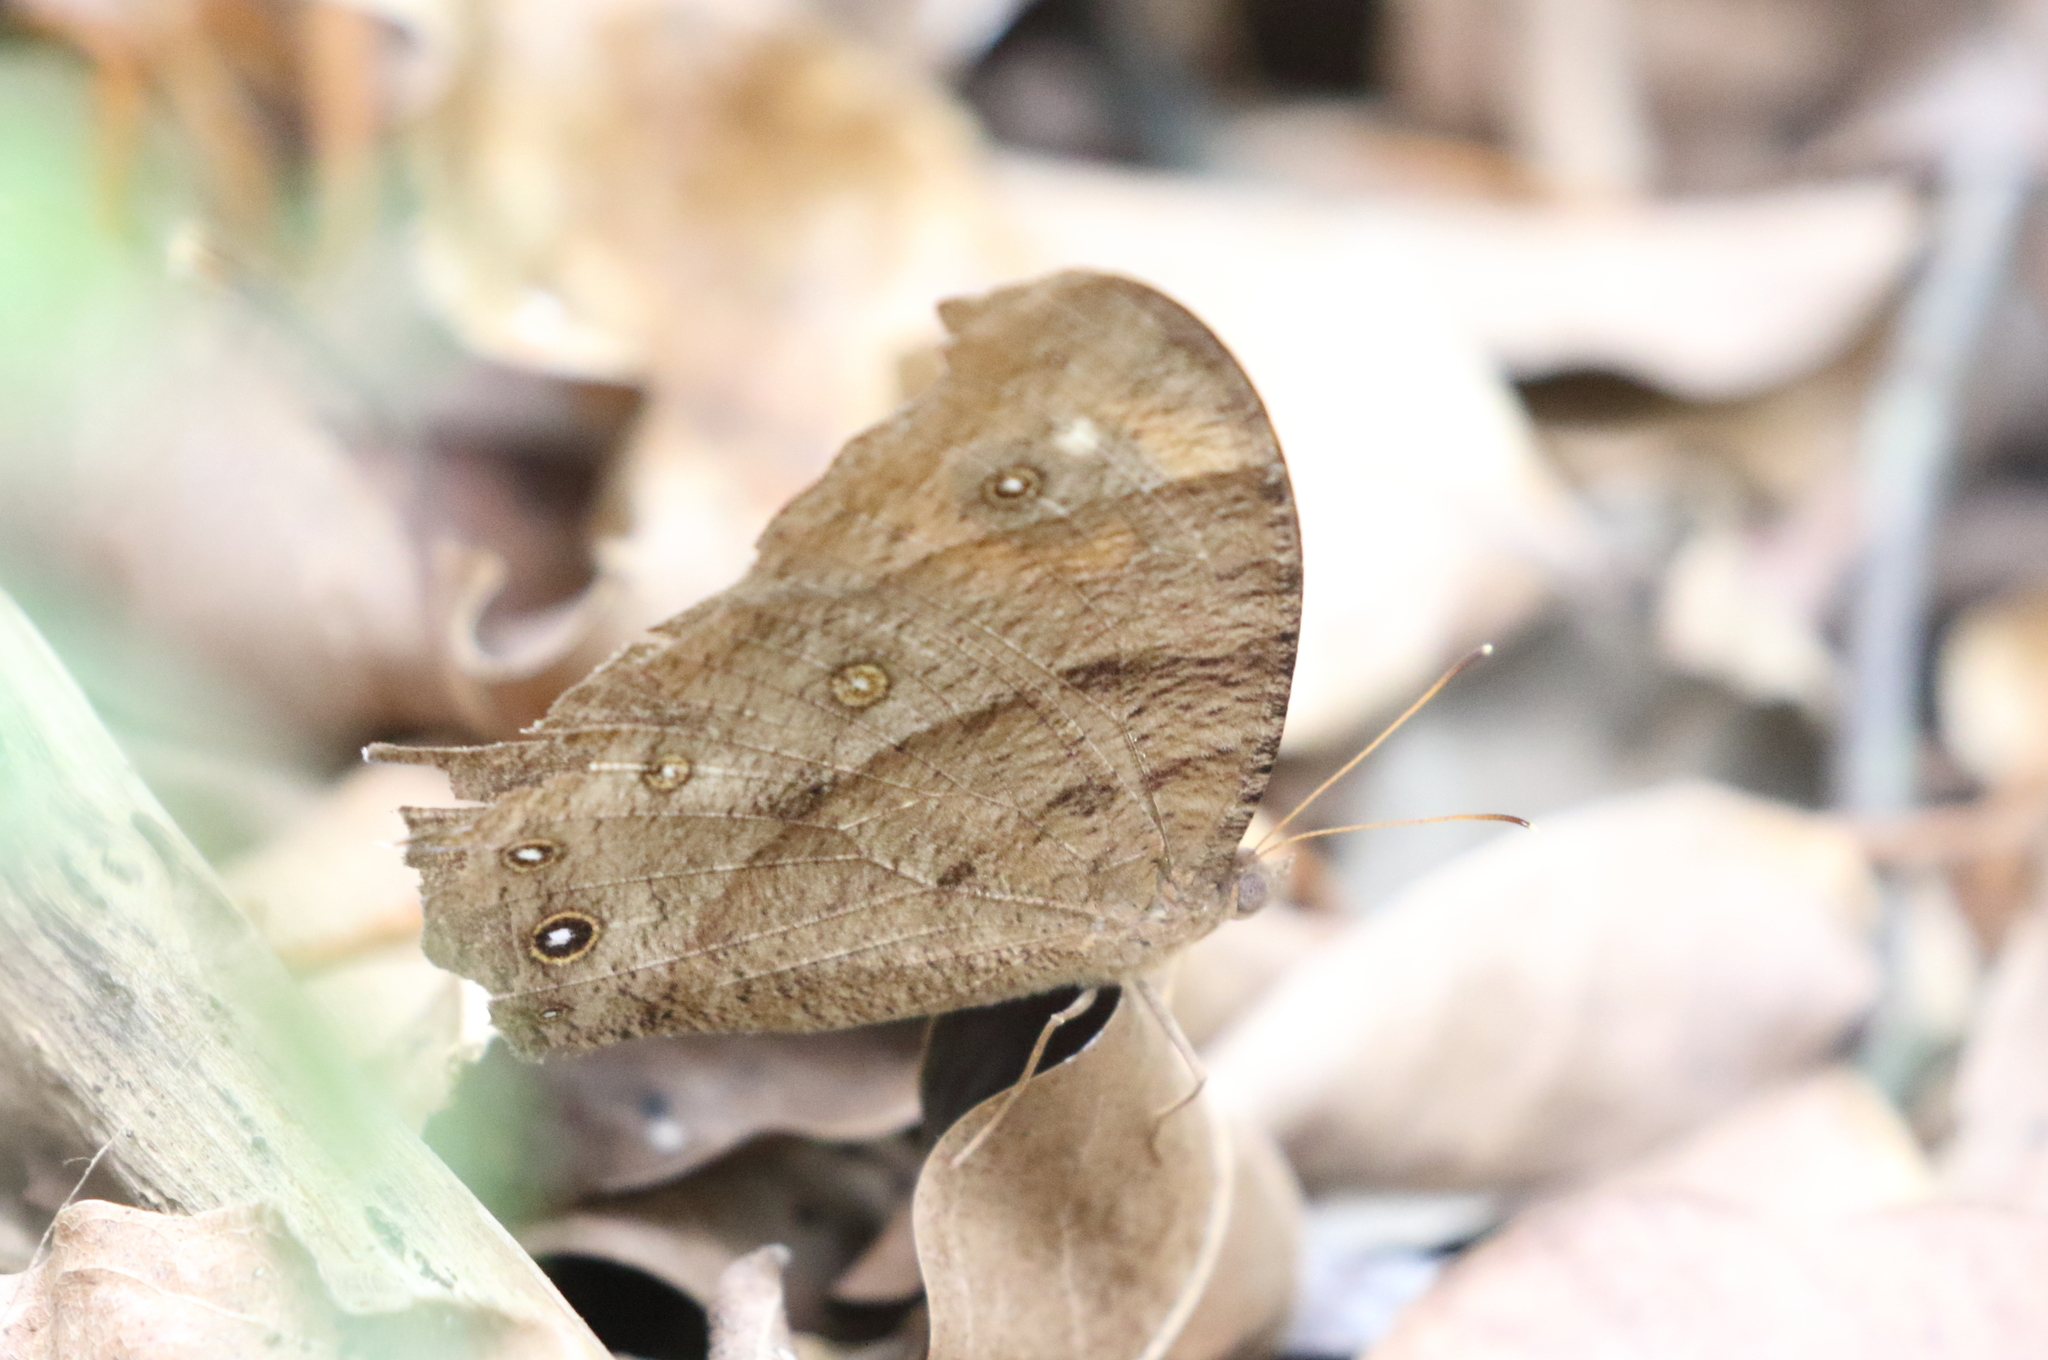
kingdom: Animalia
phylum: Arthropoda
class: Insecta
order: Lepidoptera
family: Nymphalidae
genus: Melanitis
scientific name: Melanitis leda
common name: Twilight brown
